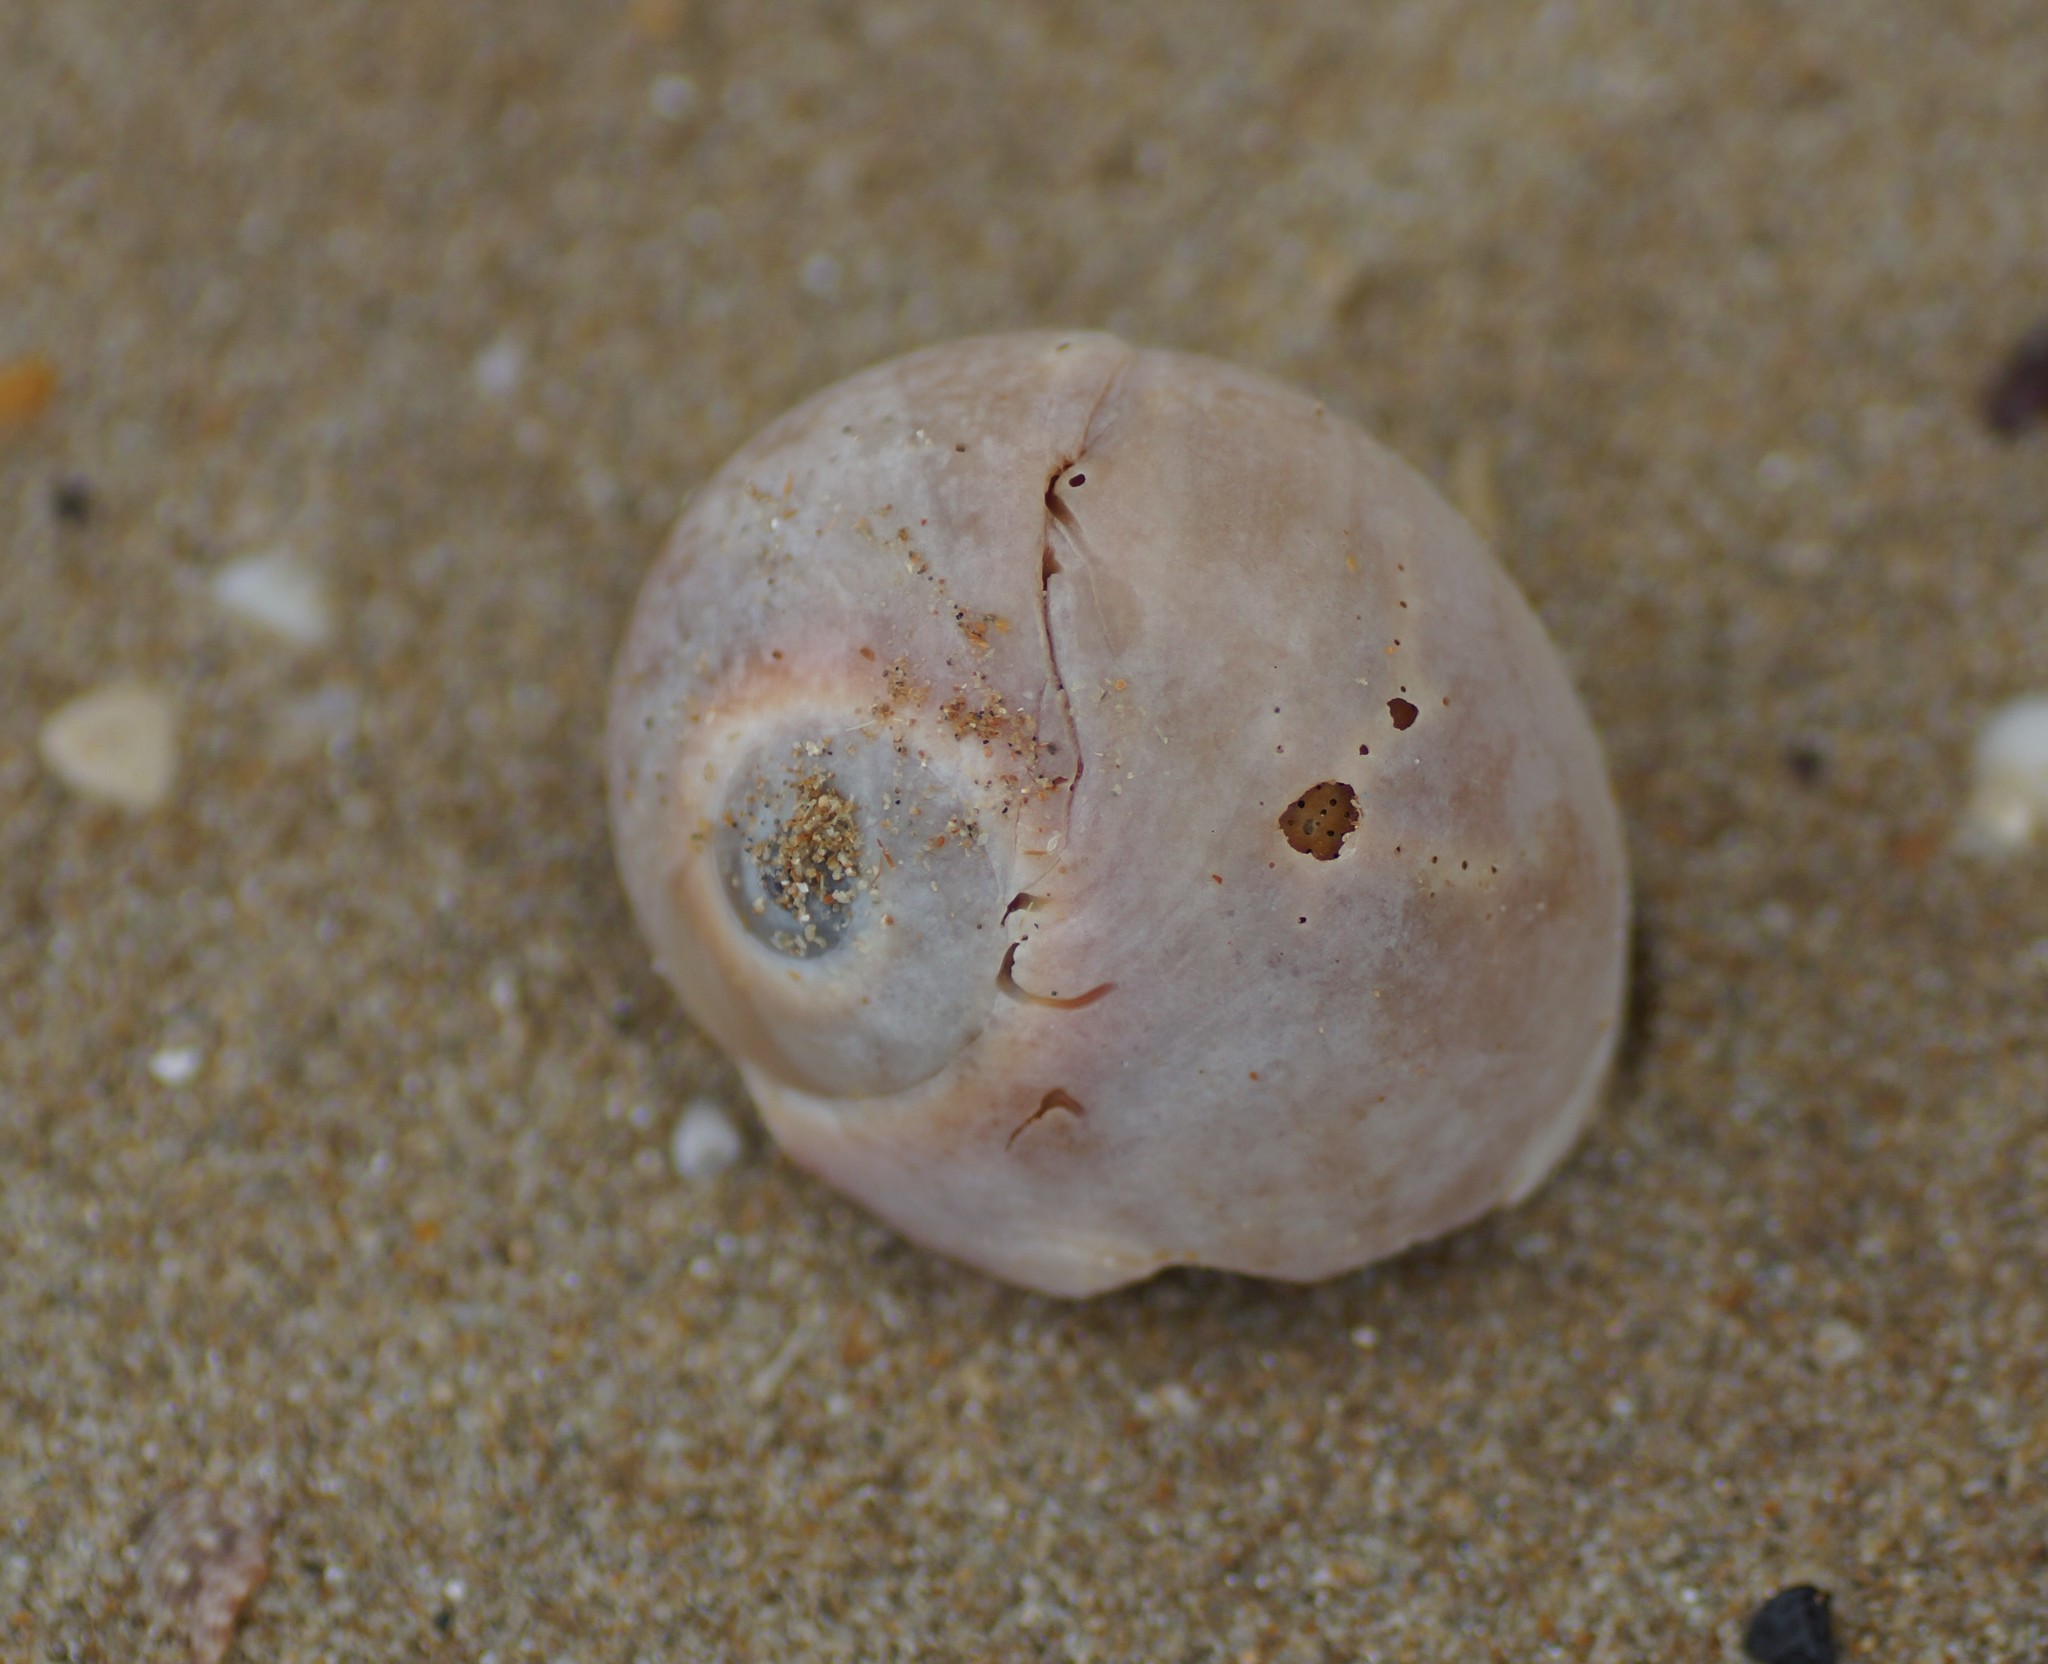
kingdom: Animalia
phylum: Mollusca
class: Gastropoda
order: Littorinimorpha
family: Naticidae
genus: Neverita
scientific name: Neverita didyma
